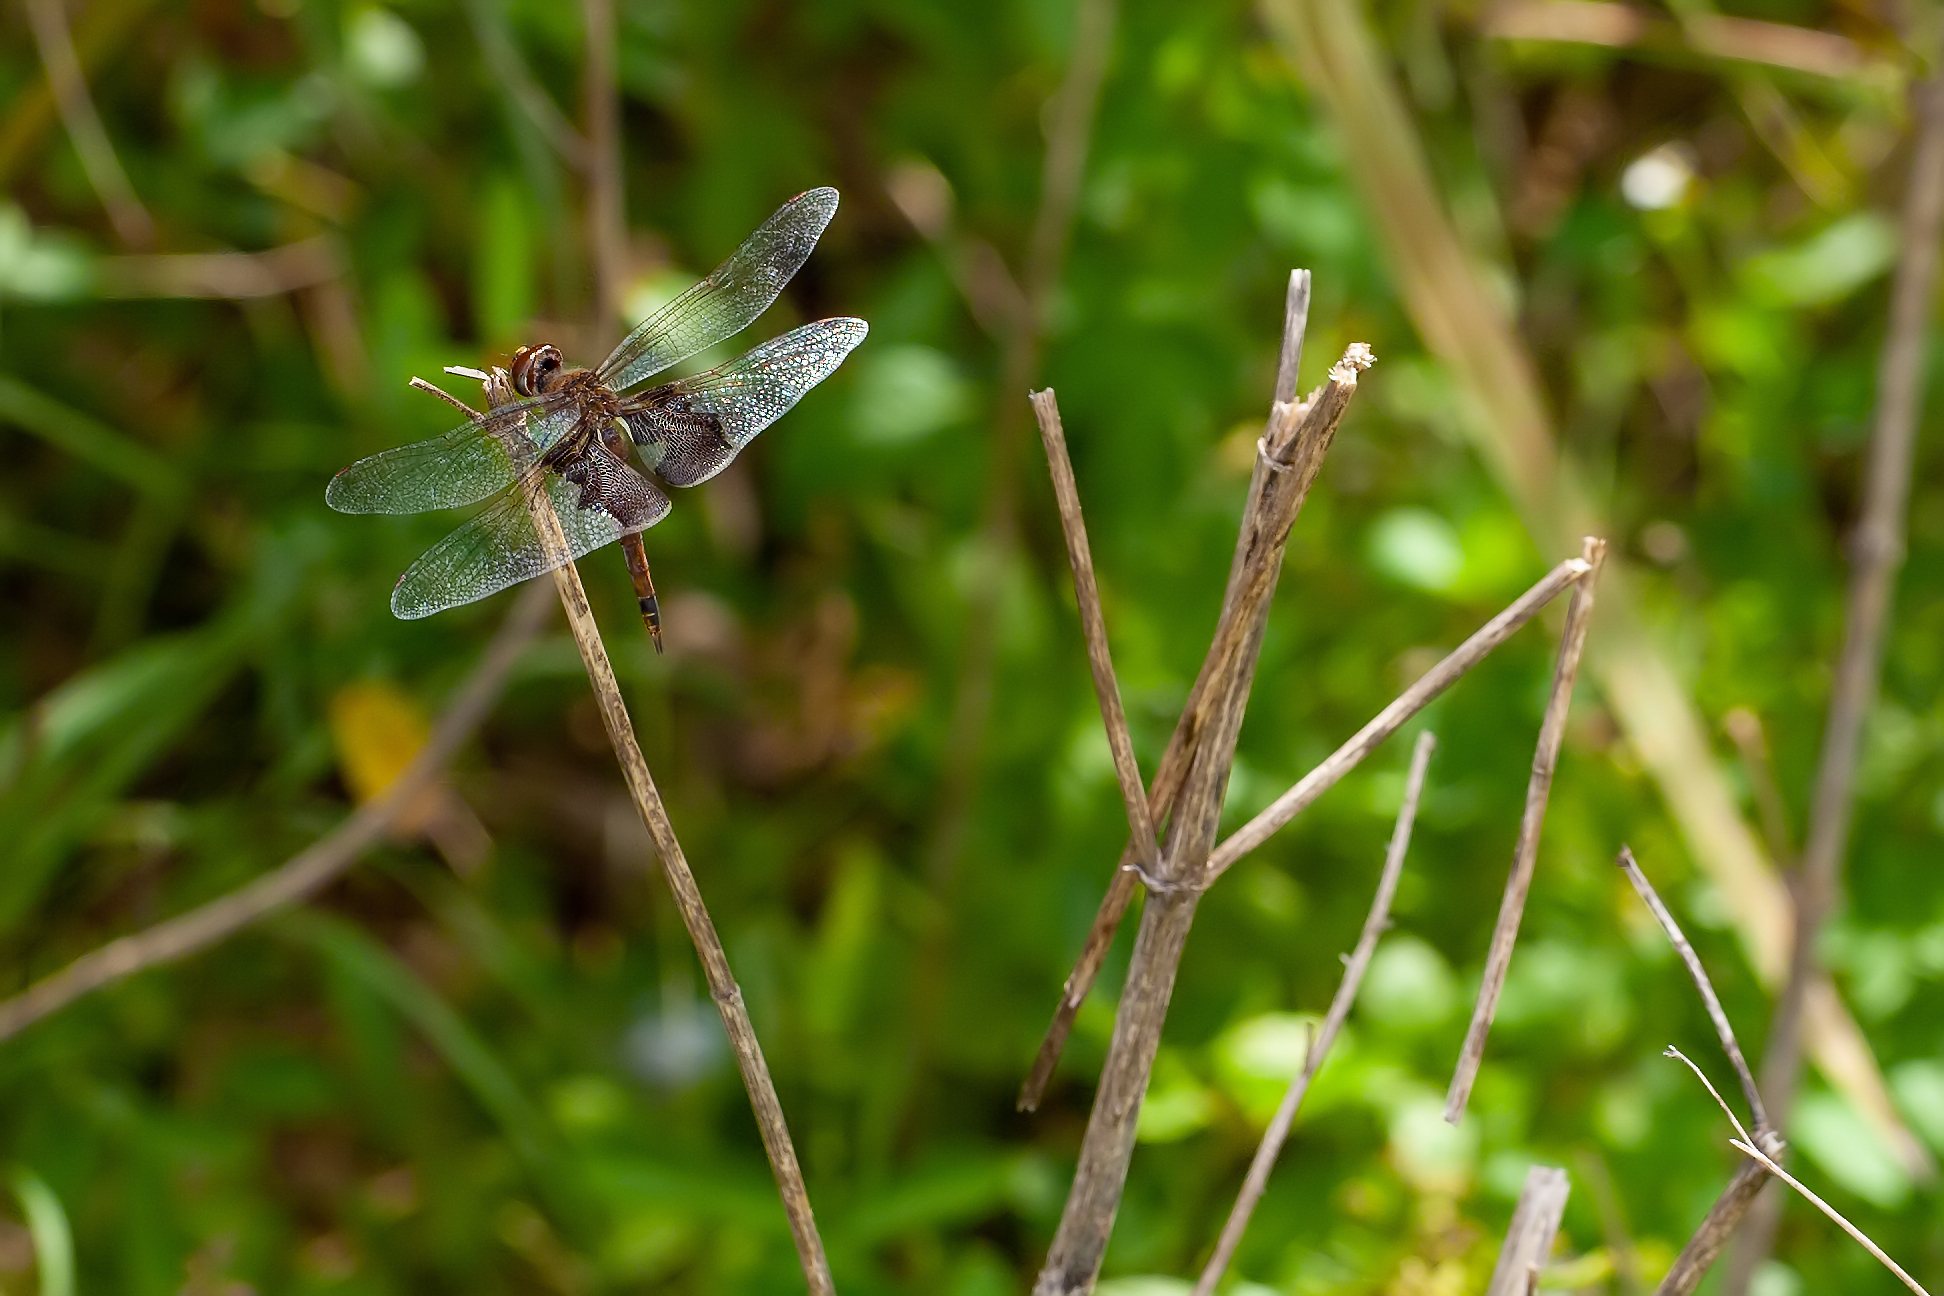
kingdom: Animalia
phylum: Arthropoda
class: Insecta
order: Odonata
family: Libellulidae
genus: Tramea
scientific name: Tramea carolina
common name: Carolina saddlebags
